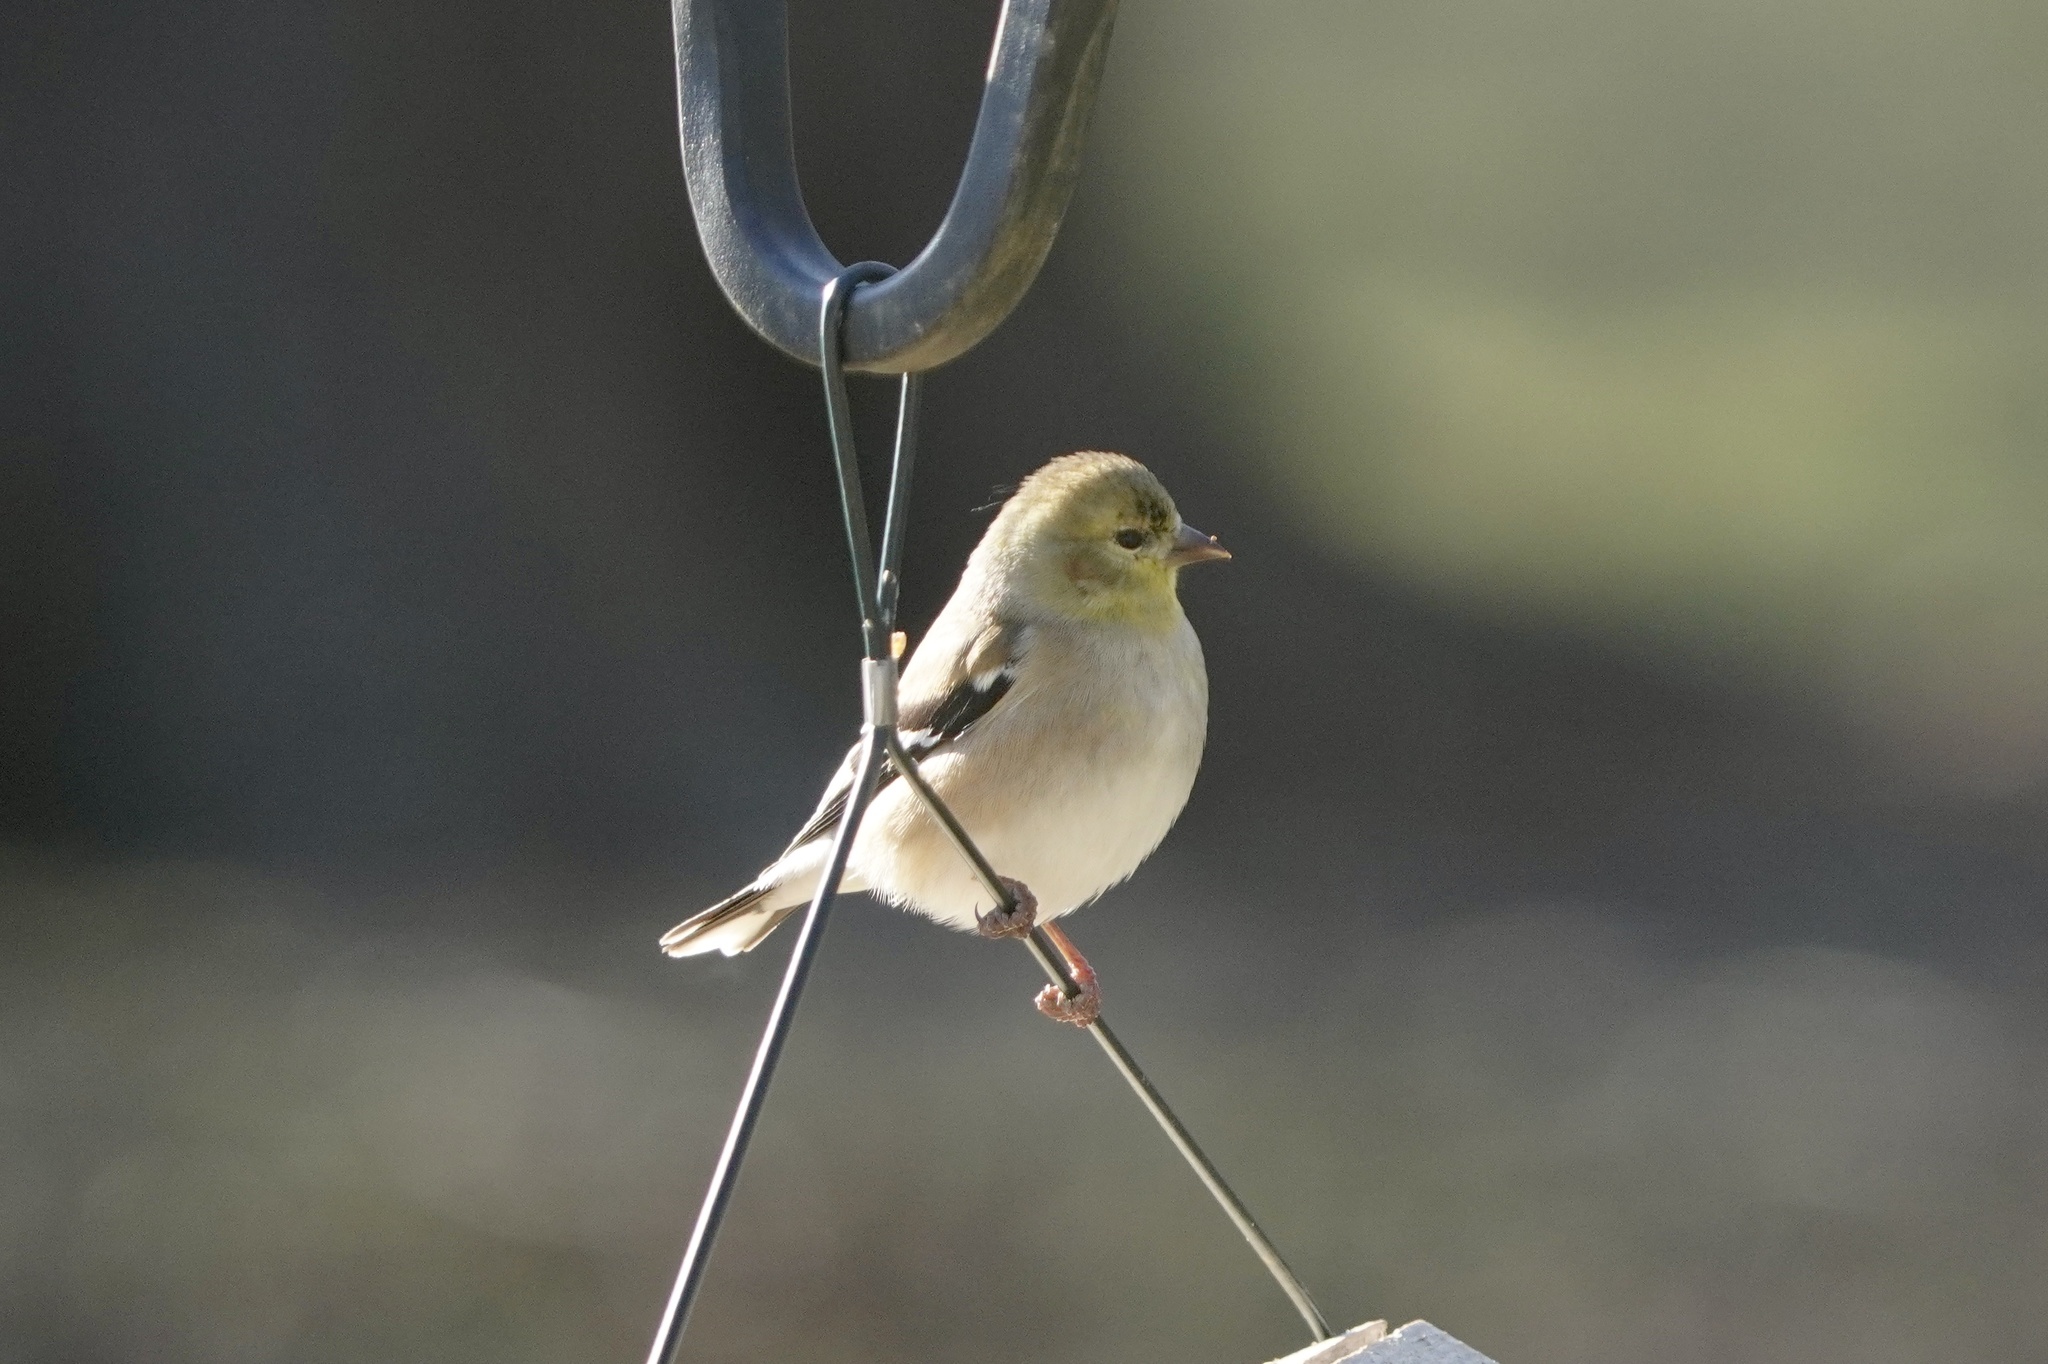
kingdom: Animalia
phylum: Chordata
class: Aves
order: Passeriformes
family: Fringillidae
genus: Spinus
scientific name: Spinus tristis
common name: American goldfinch
